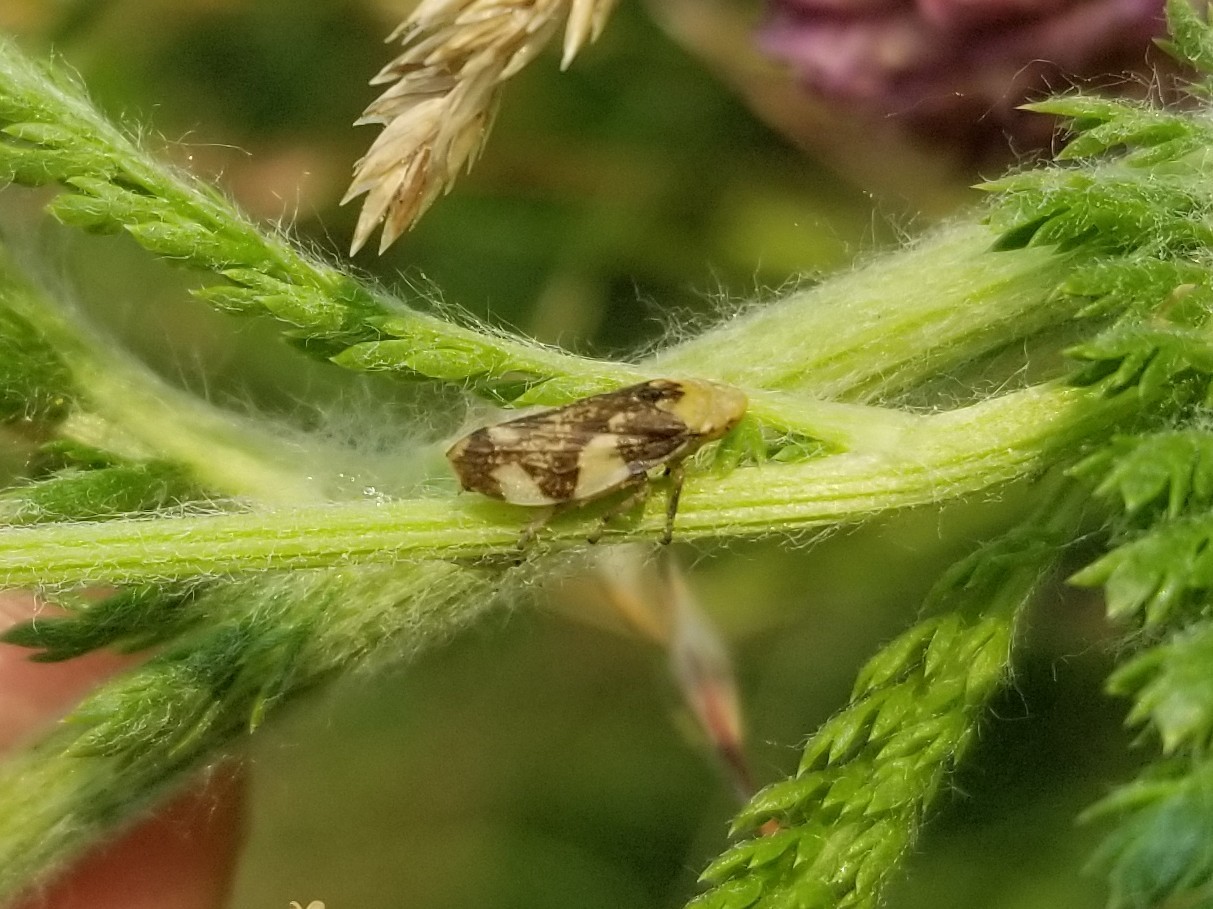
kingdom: Animalia
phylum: Arthropoda
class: Insecta
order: Hemiptera
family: Aphrophoridae
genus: Philaenus
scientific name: Philaenus spumarius
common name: Meadow spittlebug
